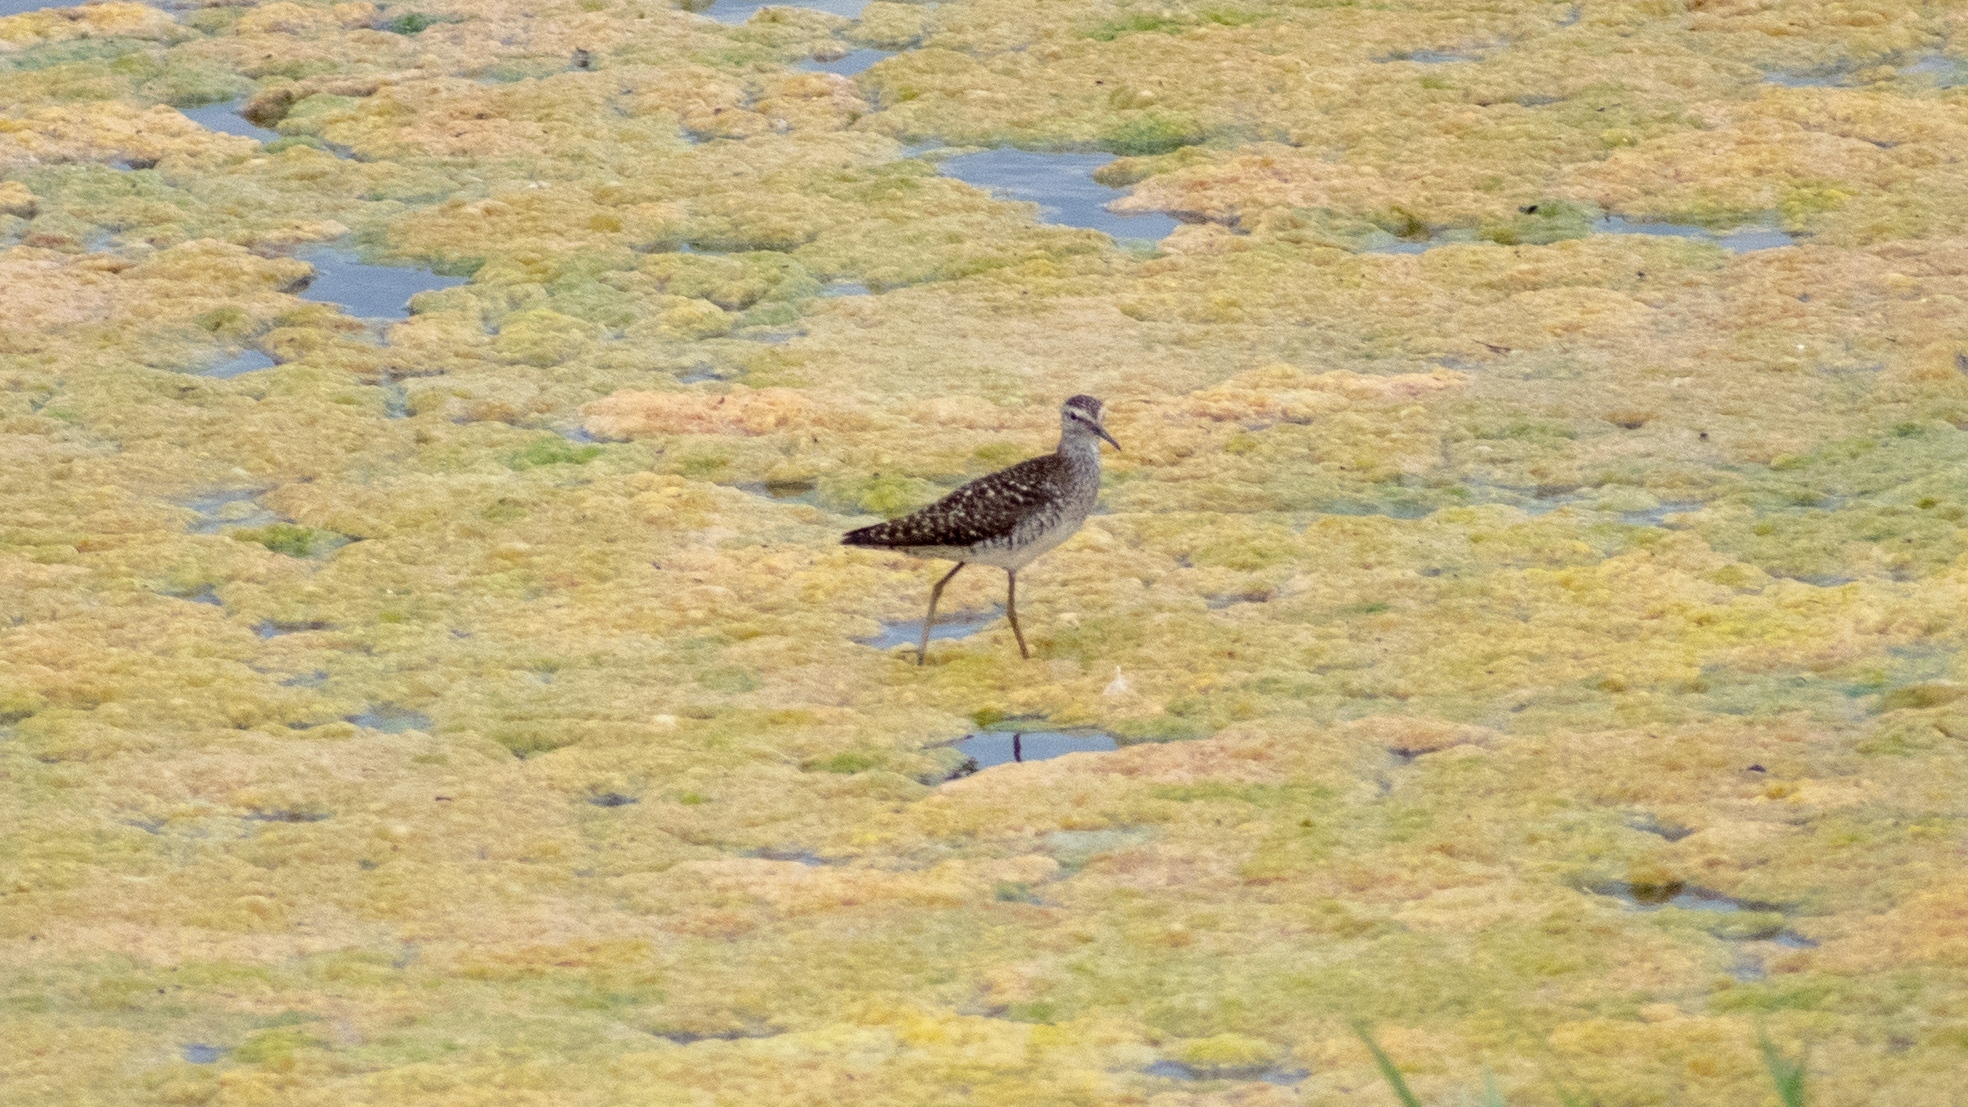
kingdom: Animalia
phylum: Chordata
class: Aves
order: Charadriiformes
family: Scolopacidae
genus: Tringa
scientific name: Tringa glareola
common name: Wood sandpiper
